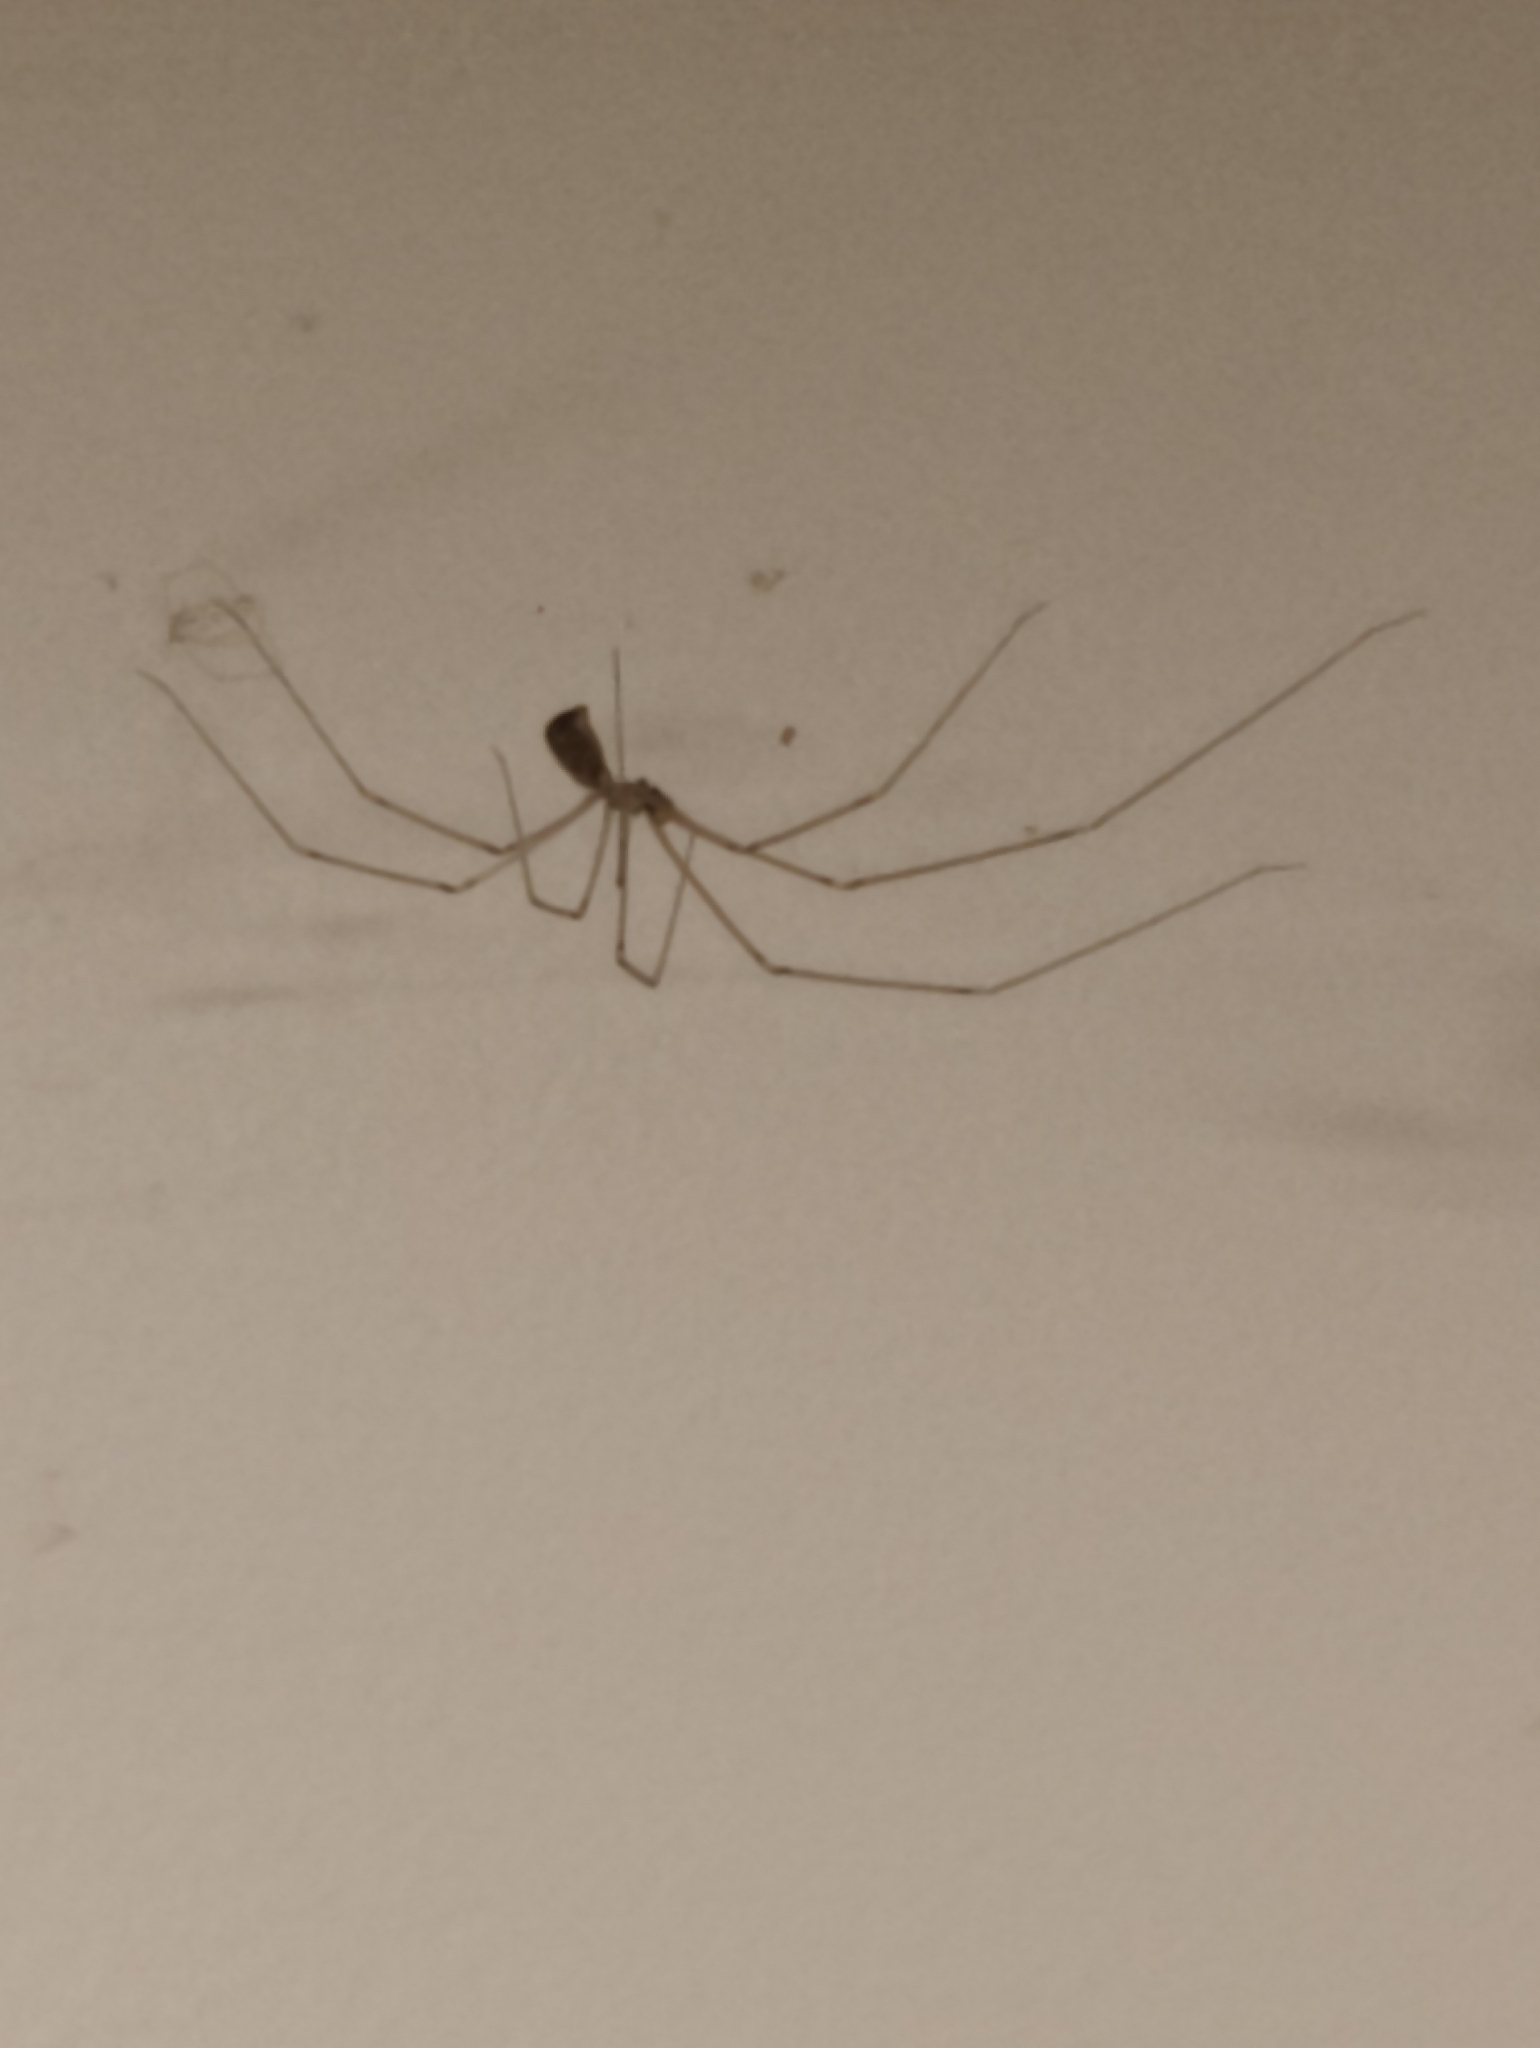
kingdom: Animalia
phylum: Arthropoda
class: Arachnida
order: Araneae
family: Pholcidae
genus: Pholcus
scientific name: Pholcus phalangioides
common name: Longbodied cellar spider
